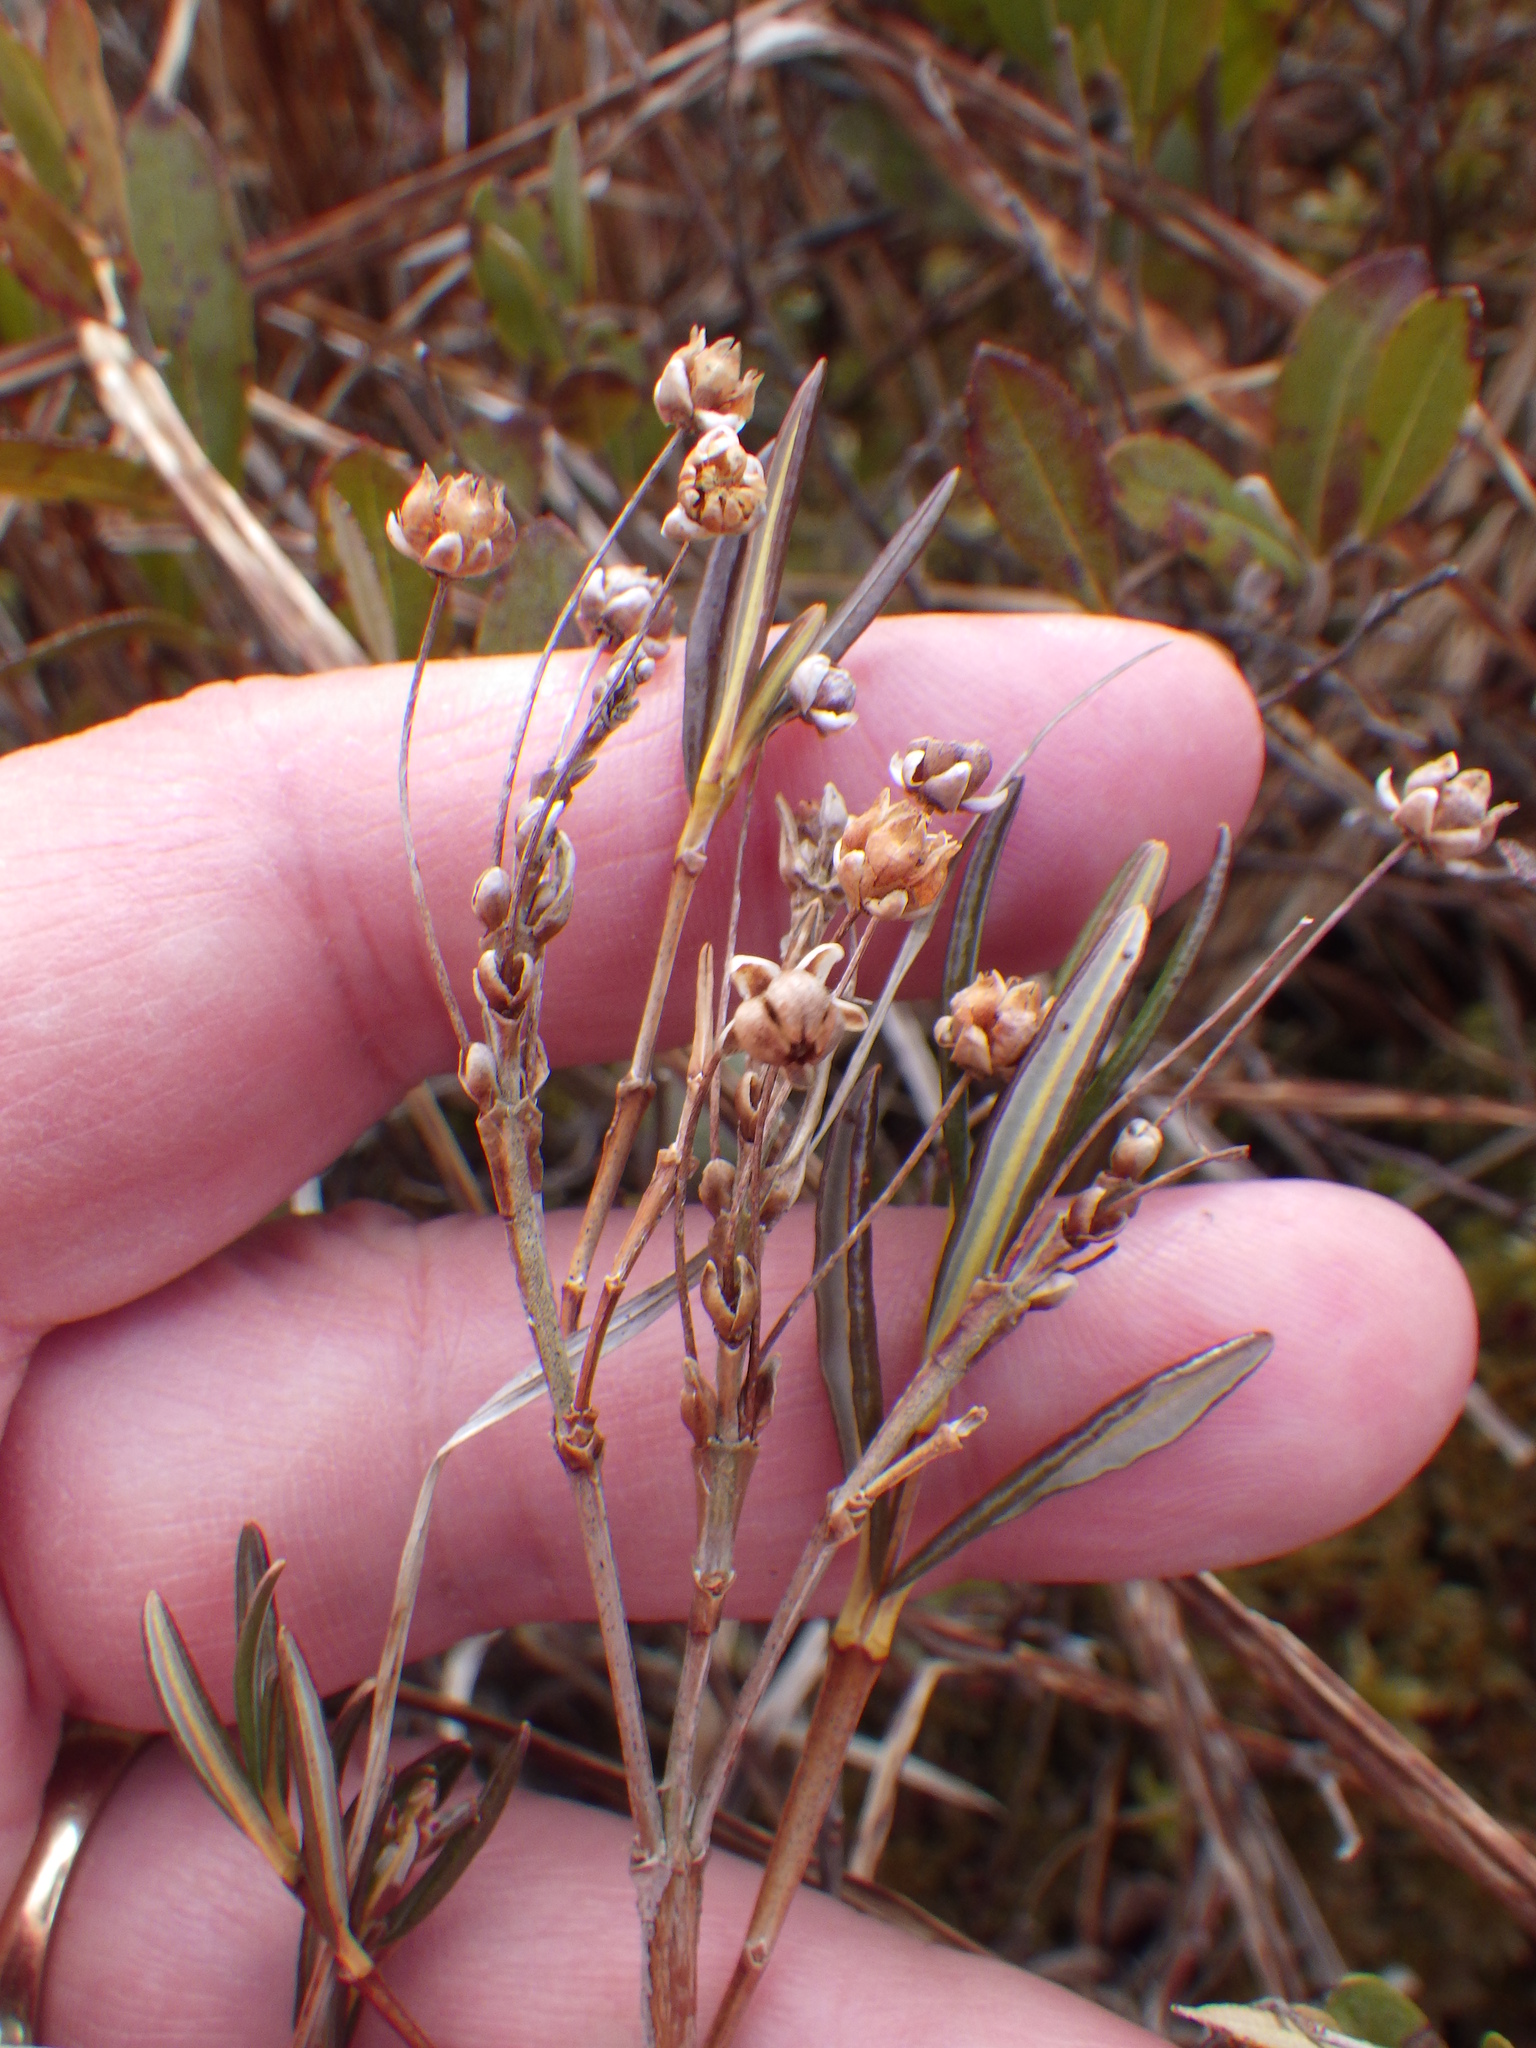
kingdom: Plantae
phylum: Tracheophyta
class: Magnoliopsida
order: Ericales
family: Ericaceae
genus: Kalmia
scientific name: Kalmia polifolia
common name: Bog-laurel
